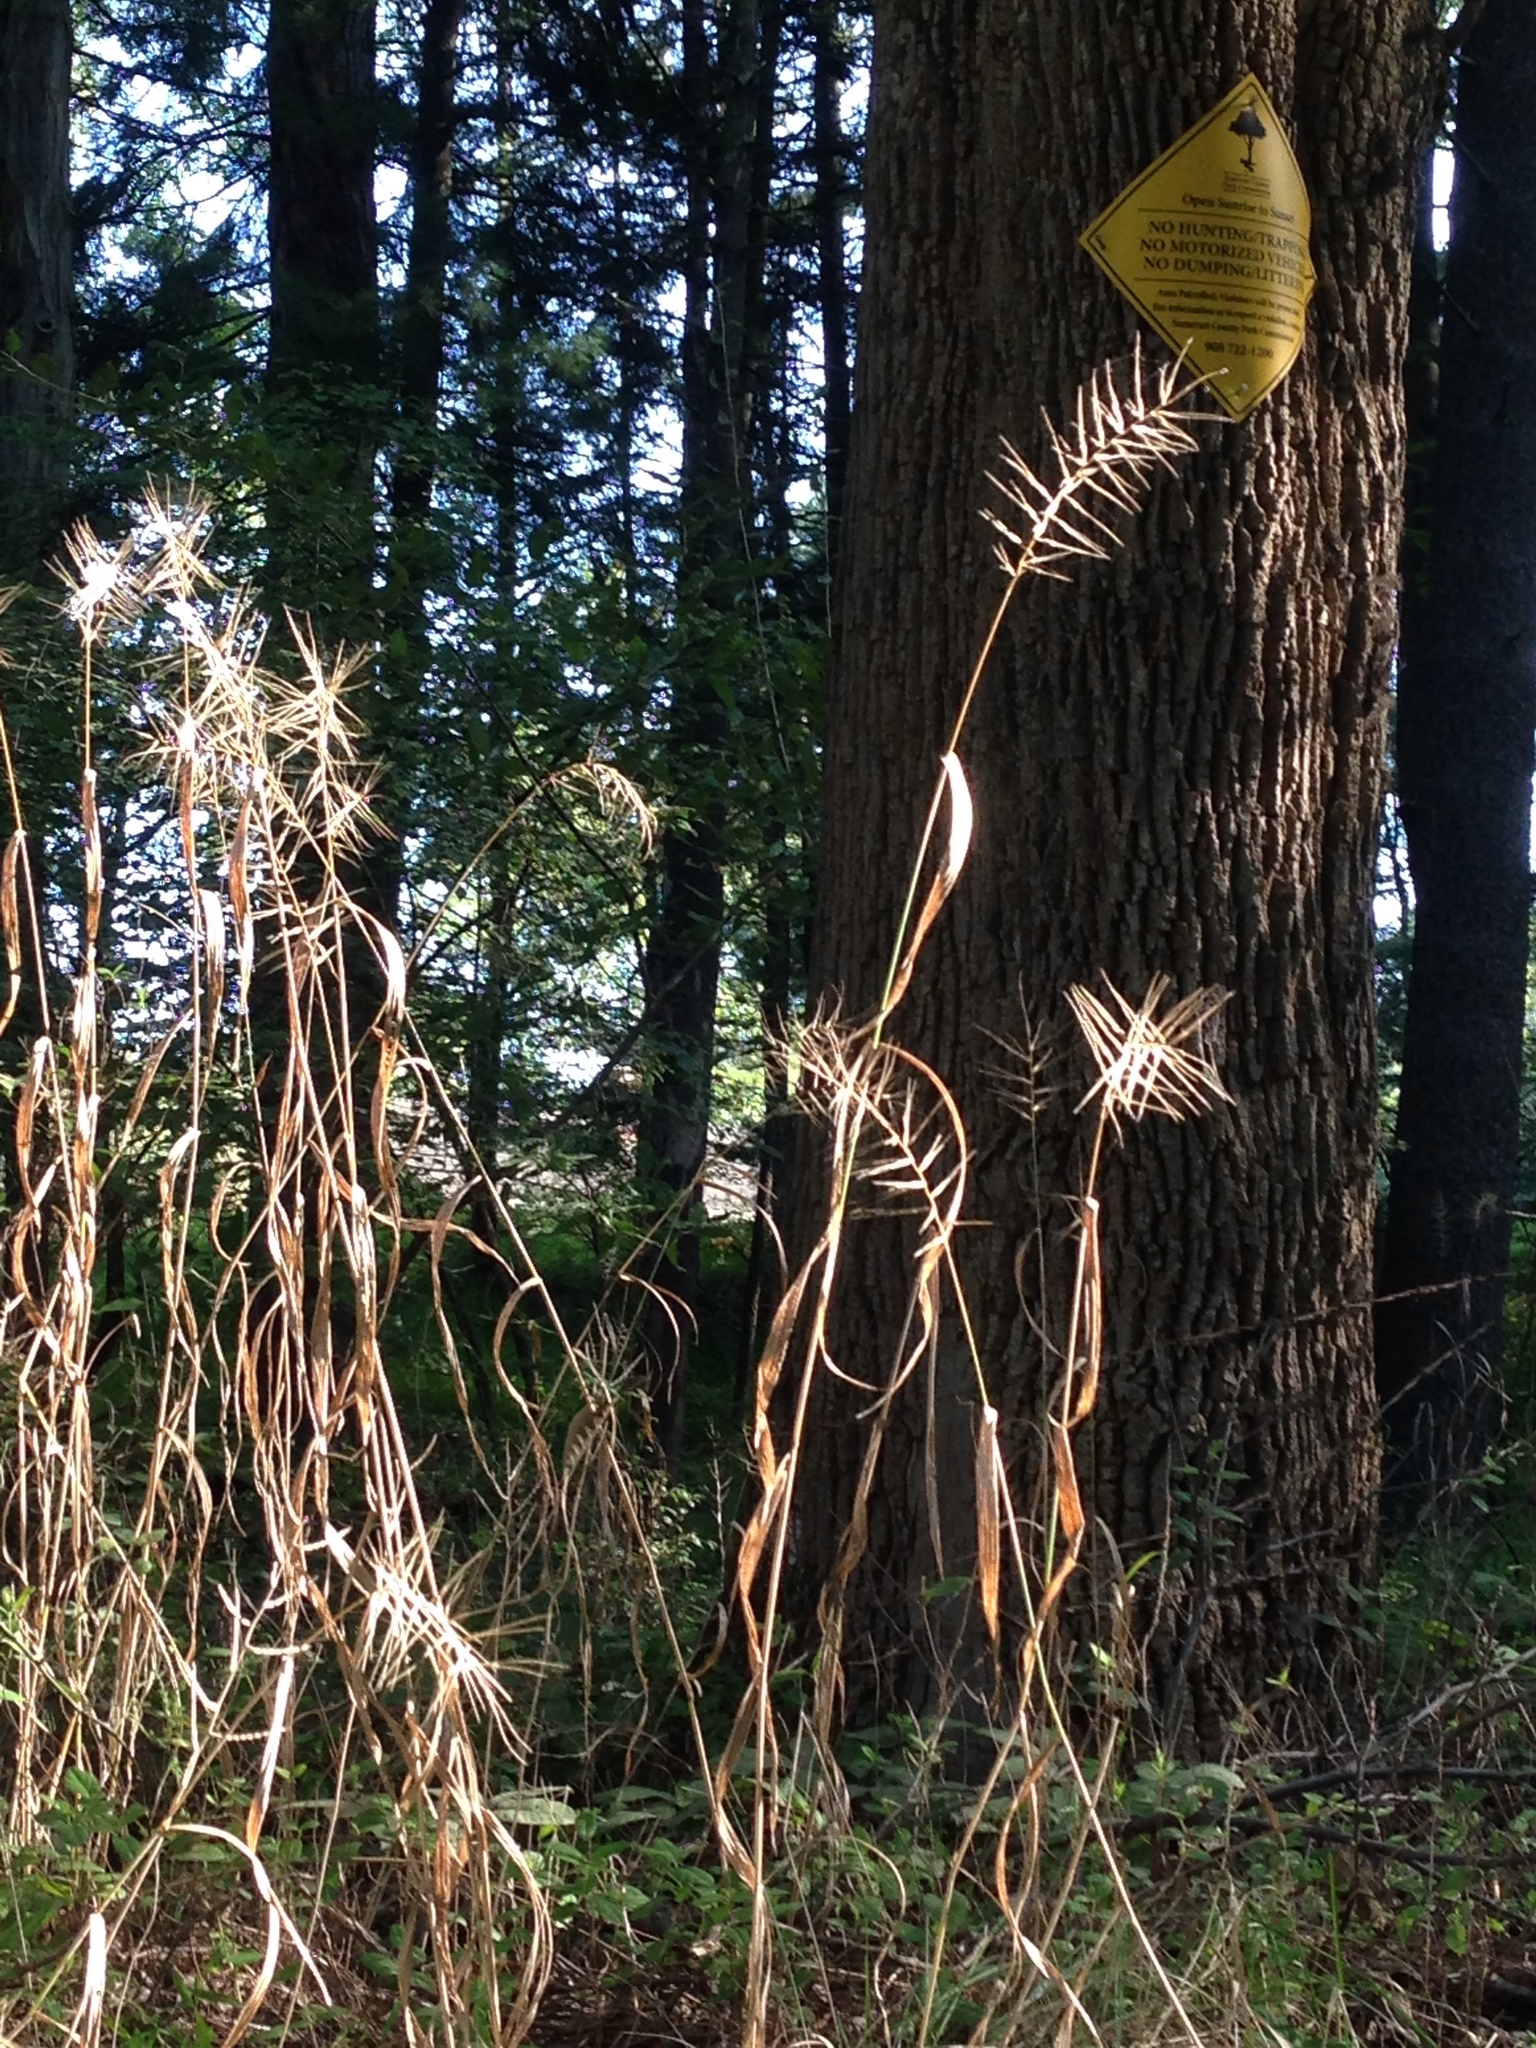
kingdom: Plantae
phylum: Tracheophyta
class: Liliopsida
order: Poales
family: Poaceae
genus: Elymus
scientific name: Elymus hystrix
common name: Bottlebrush grass
